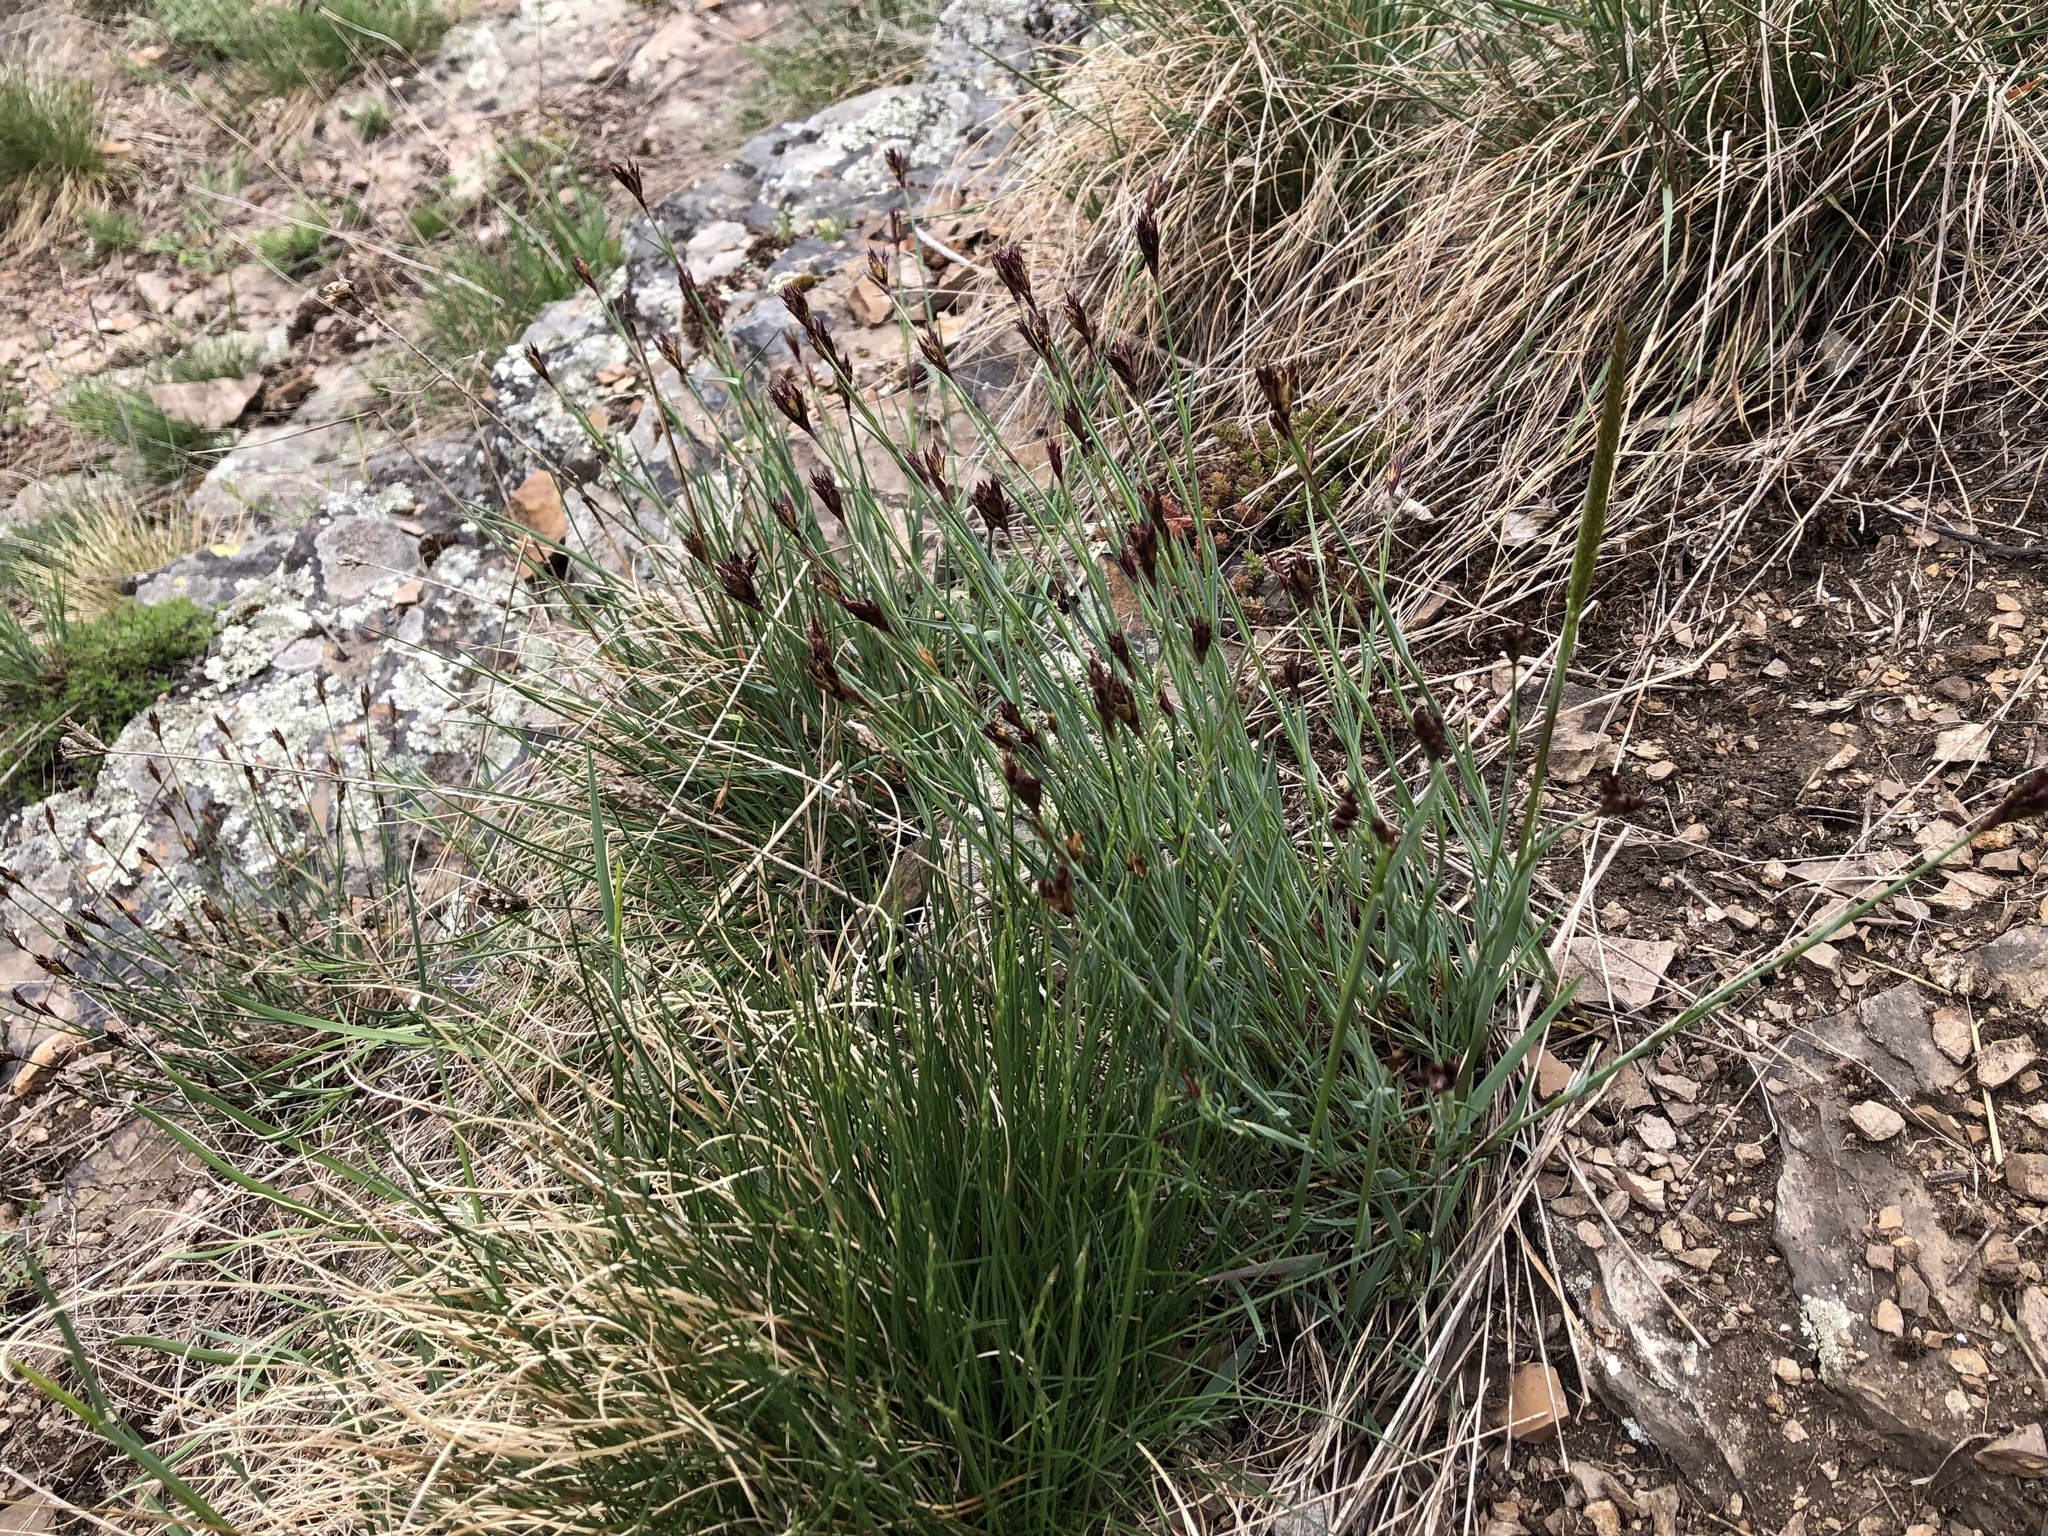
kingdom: Plantae
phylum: Tracheophyta
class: Magnoliopsida
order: Caryophyllales
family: Caryophyllaceae
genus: Dianthus
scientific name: Dianthus carthusianorum
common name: Carthusian pink
